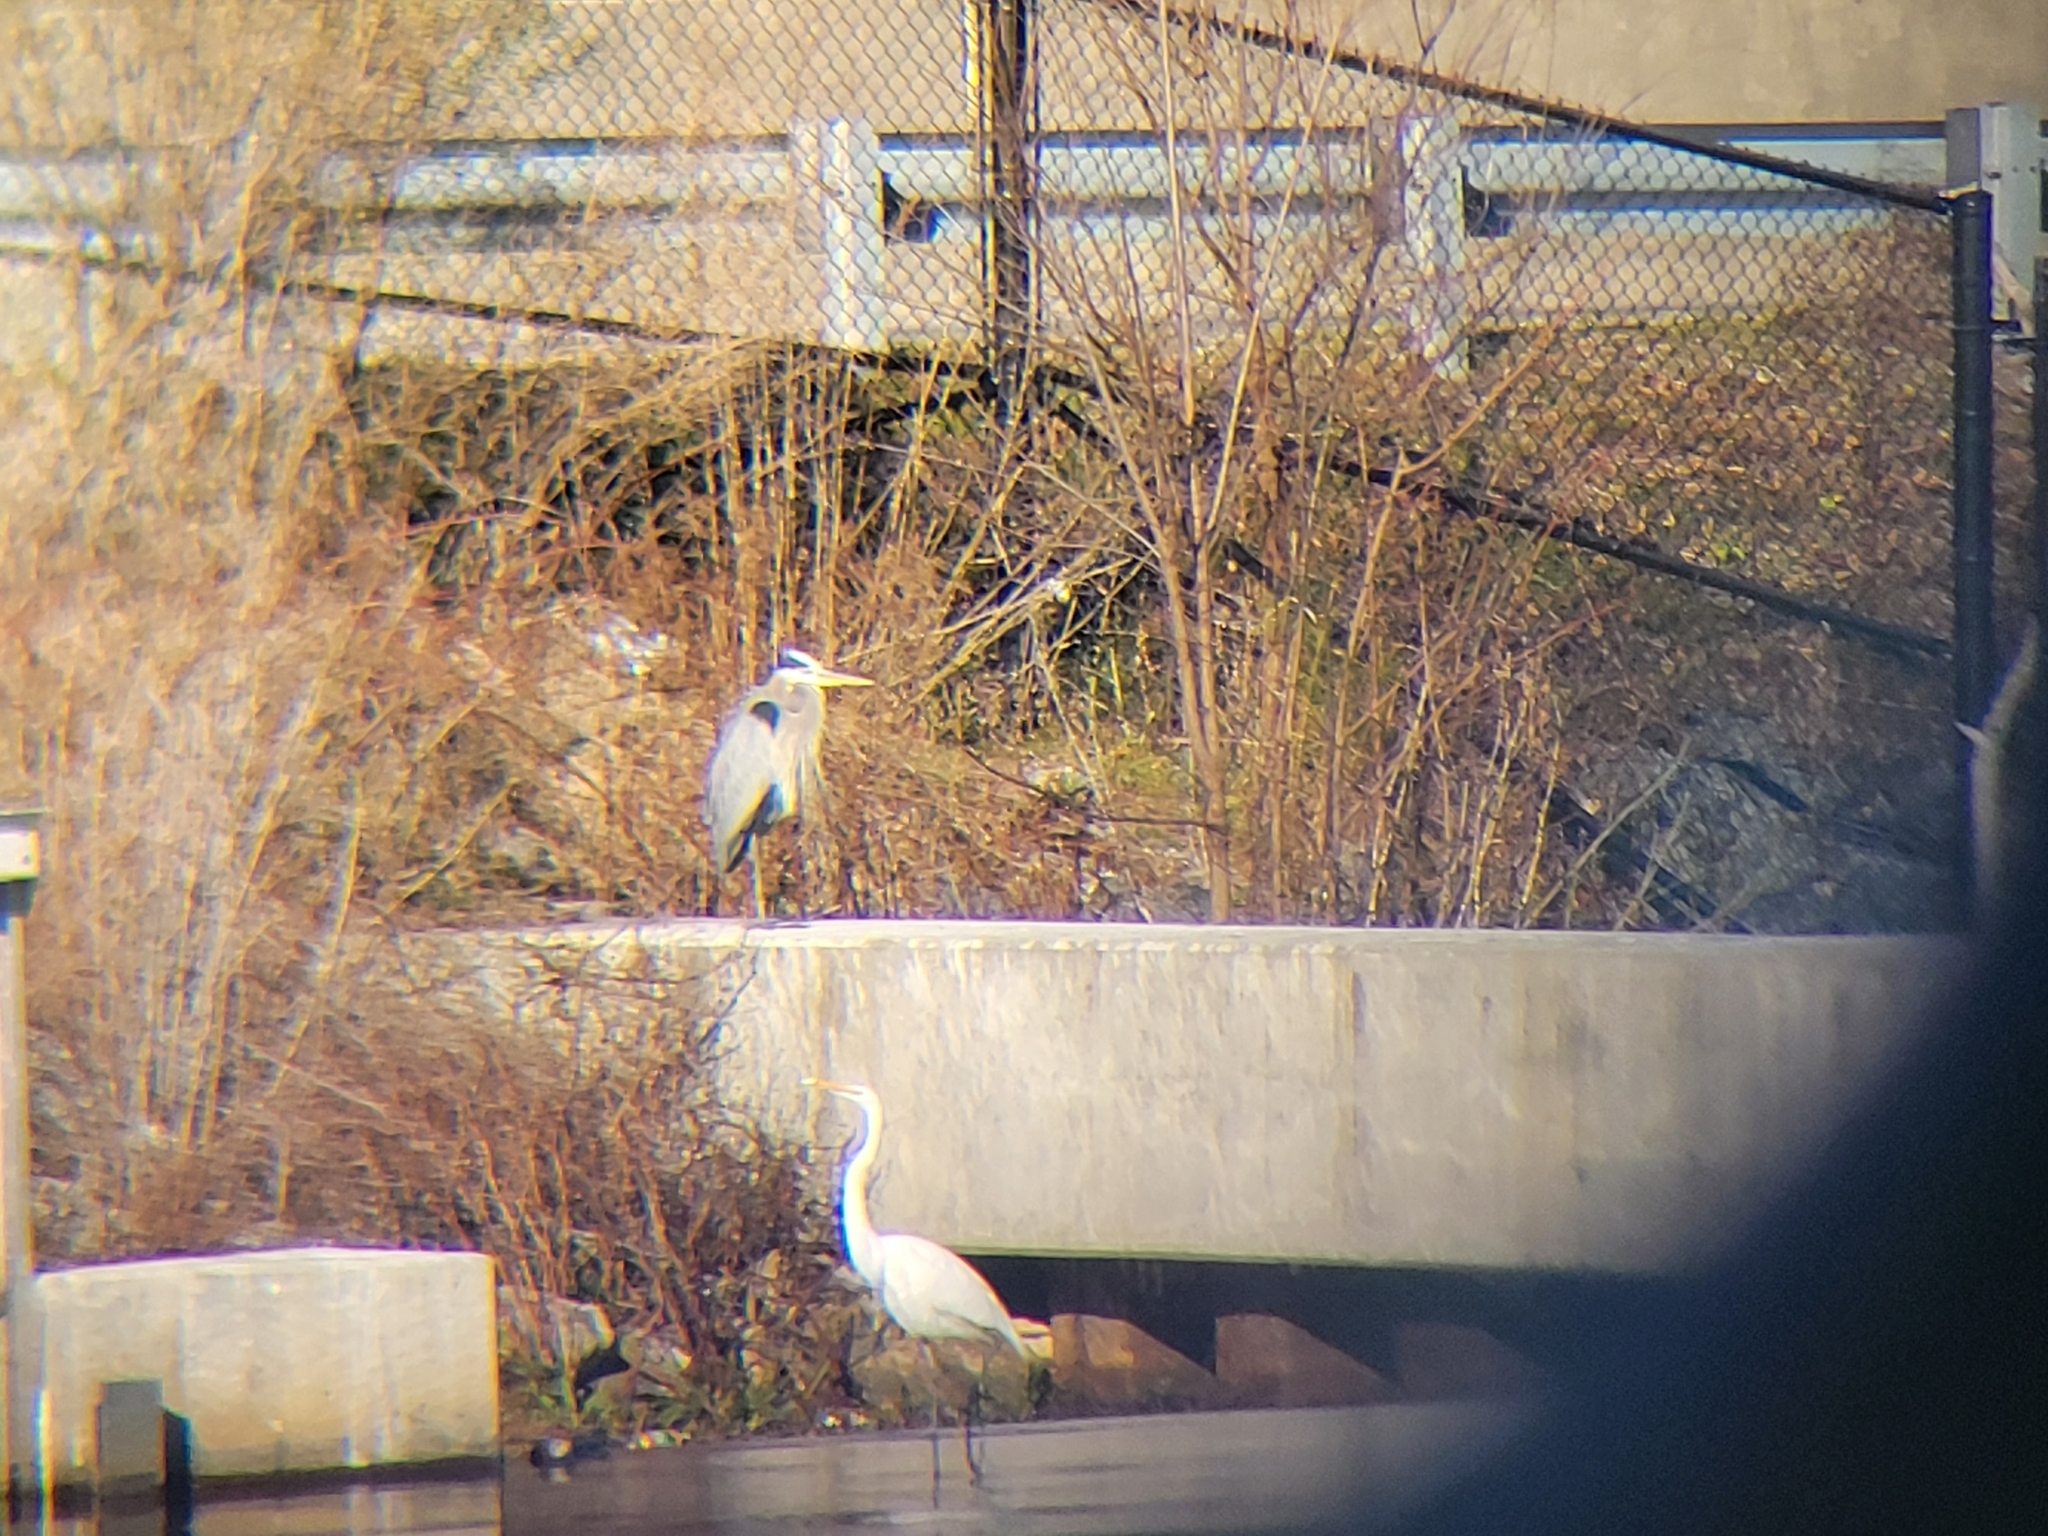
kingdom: Animalia
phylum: Chordata
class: Aves
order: Pelecaniformes
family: Ardeidae
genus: Ardea
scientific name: Ardea alba
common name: Great egret
